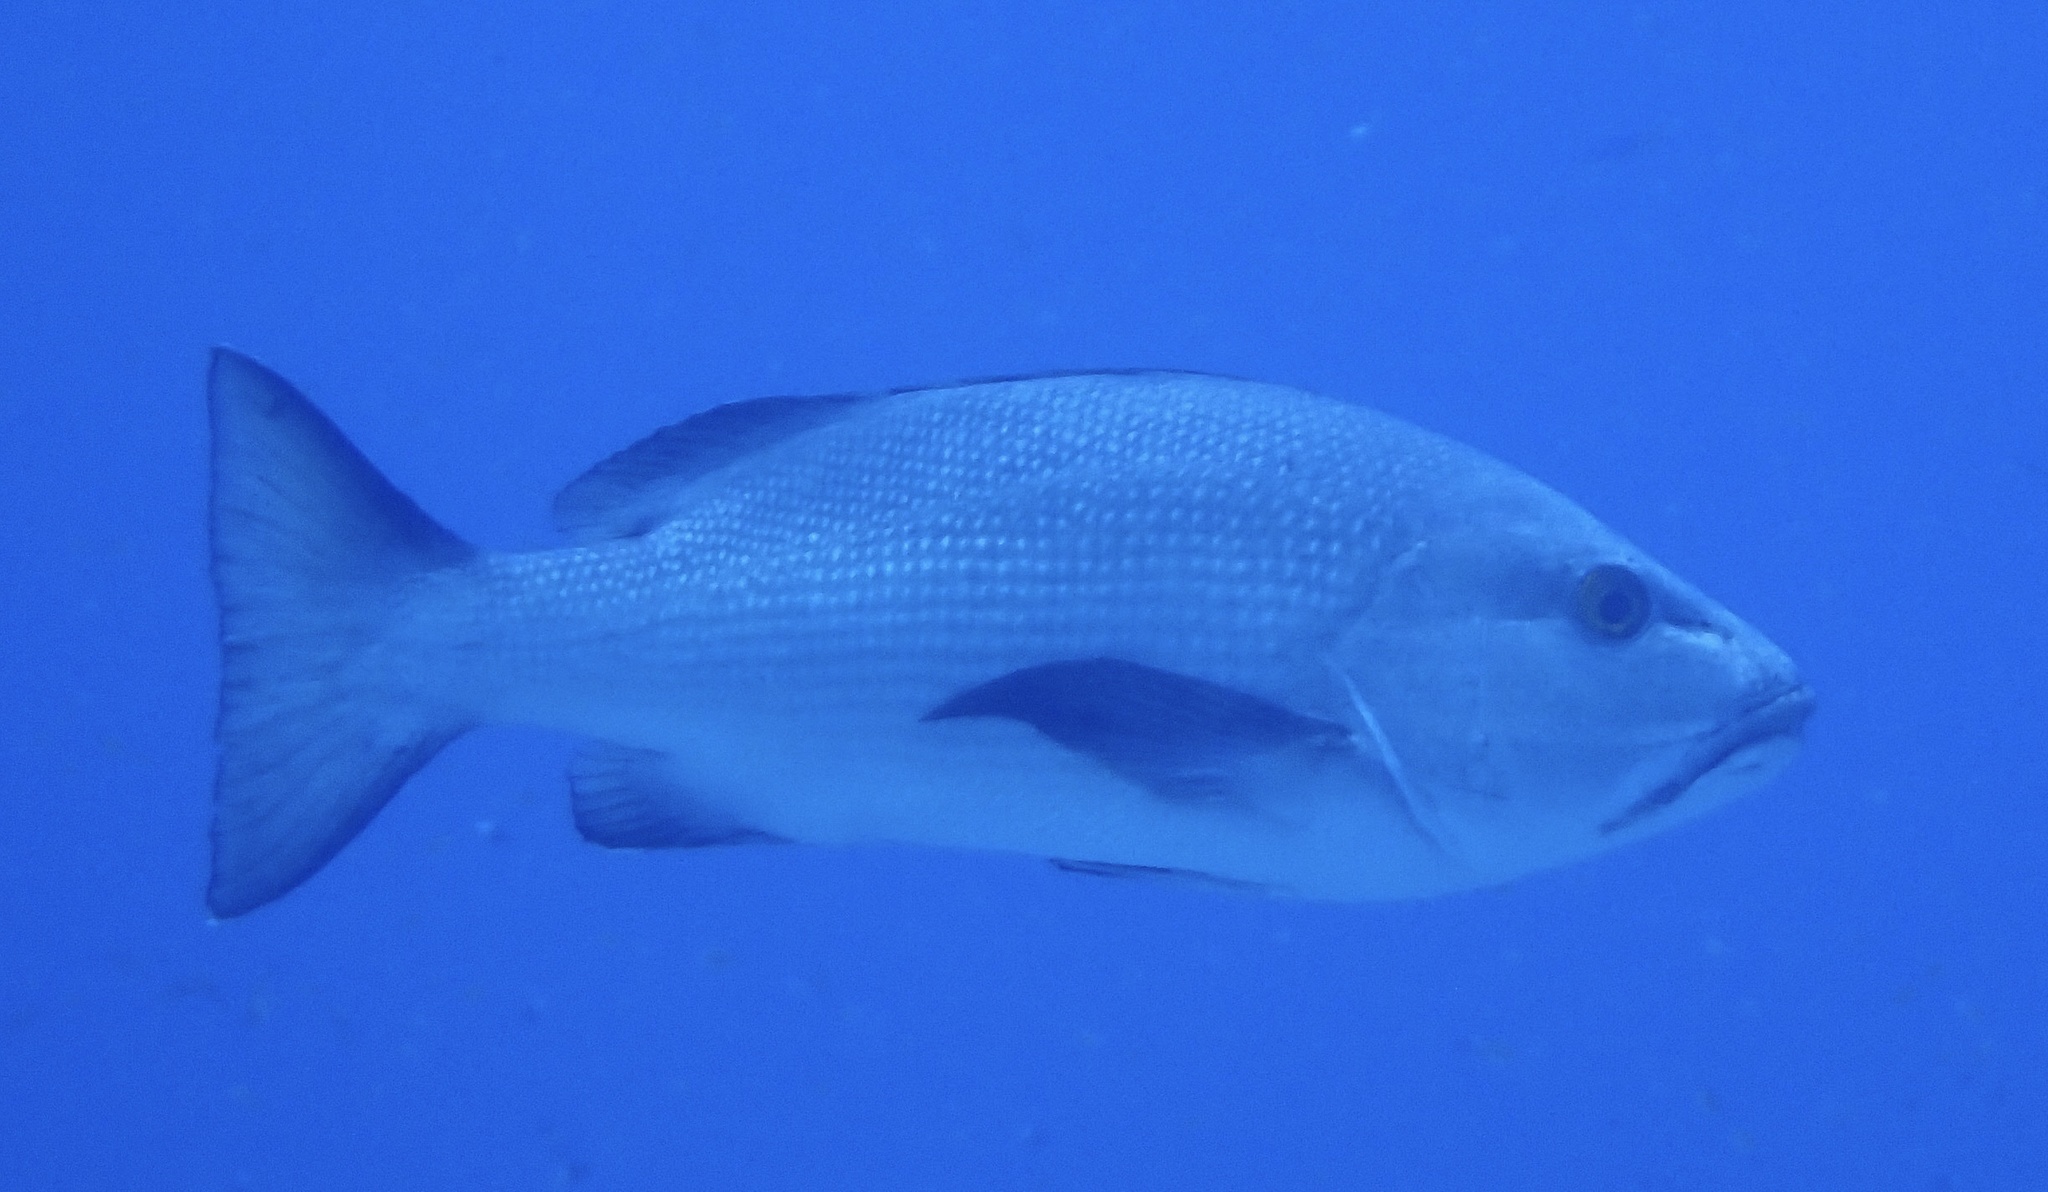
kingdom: Animalia
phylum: Chordata
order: Perciformes
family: Lutjanidae
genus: Lutjanus
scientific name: Lutjanus bohar
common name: Red bass
